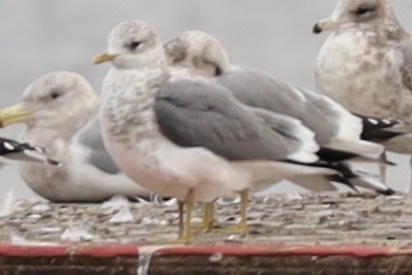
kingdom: Animalia
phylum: Chordata
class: Aves
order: Charadriiformes
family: Laridae
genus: Larus
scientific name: Larus brachyrhynchus
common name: Short-billed gull
